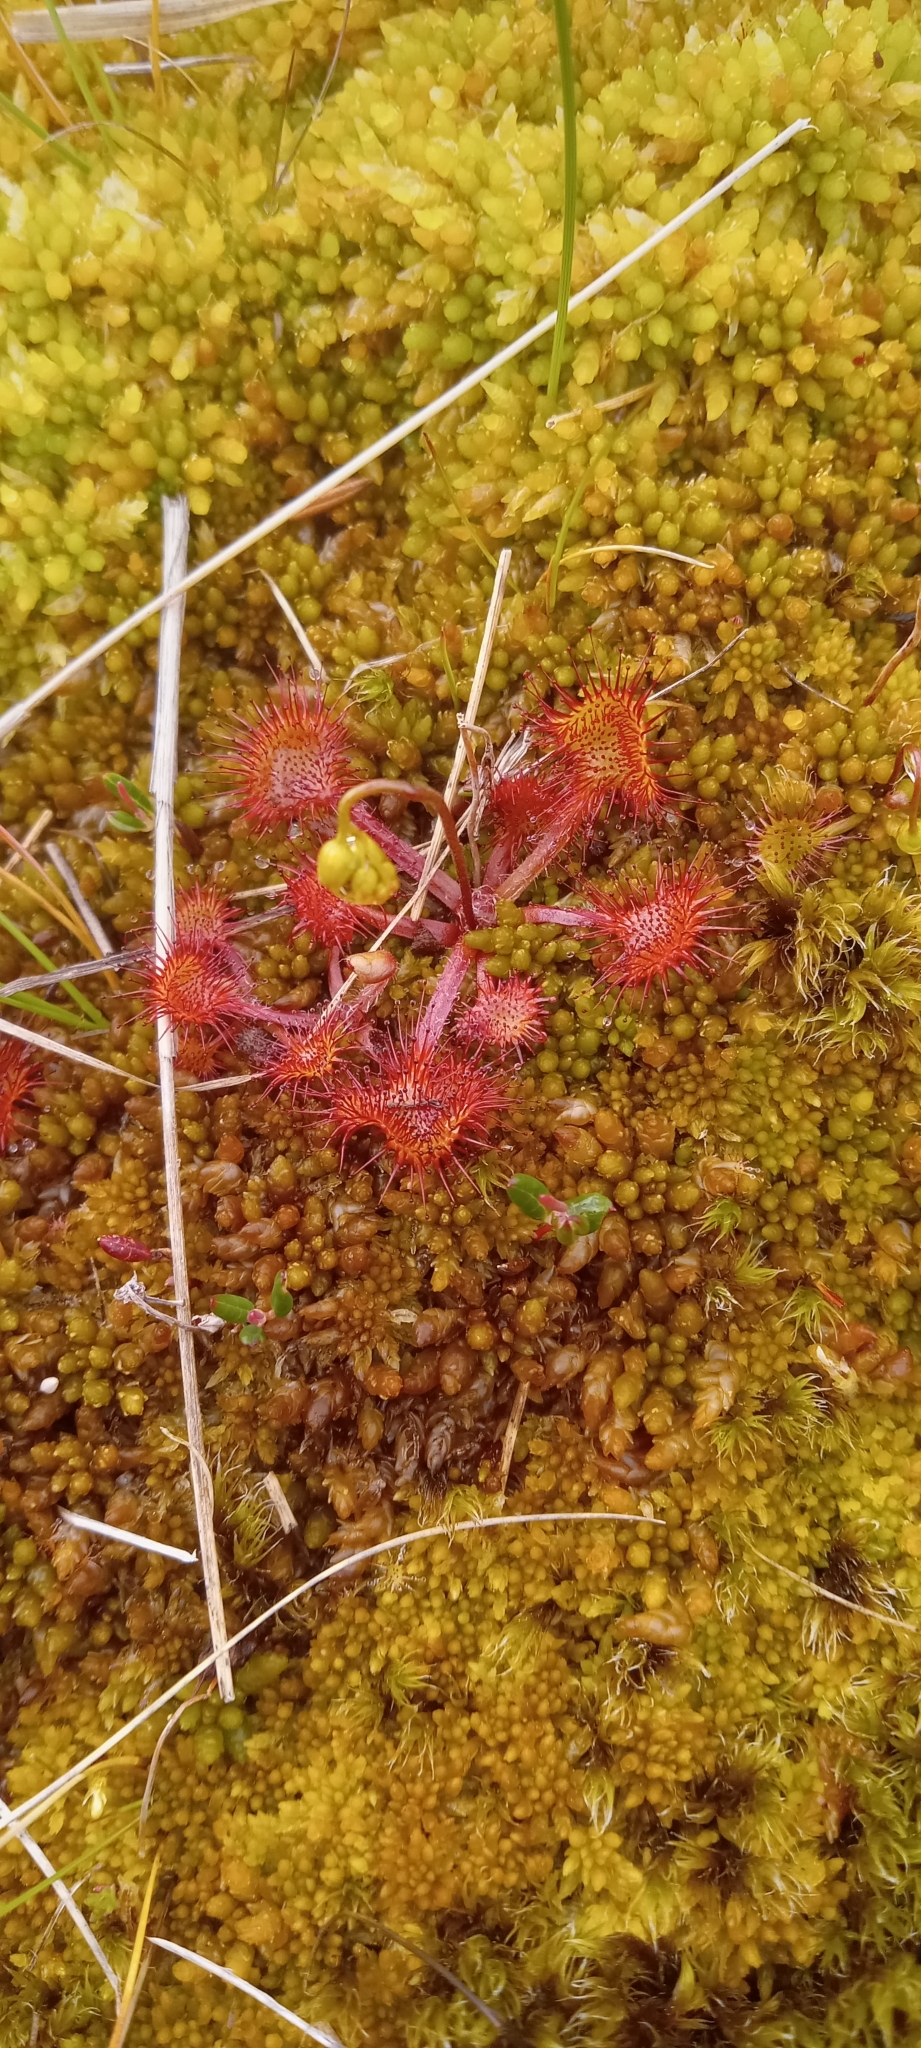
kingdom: Plantae
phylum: Tracheophyta
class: Magnoliopsida
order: Caryophyllales
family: Droseraceae
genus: Drosera
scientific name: Drosera rotundifolia
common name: Round-leaved sundew
